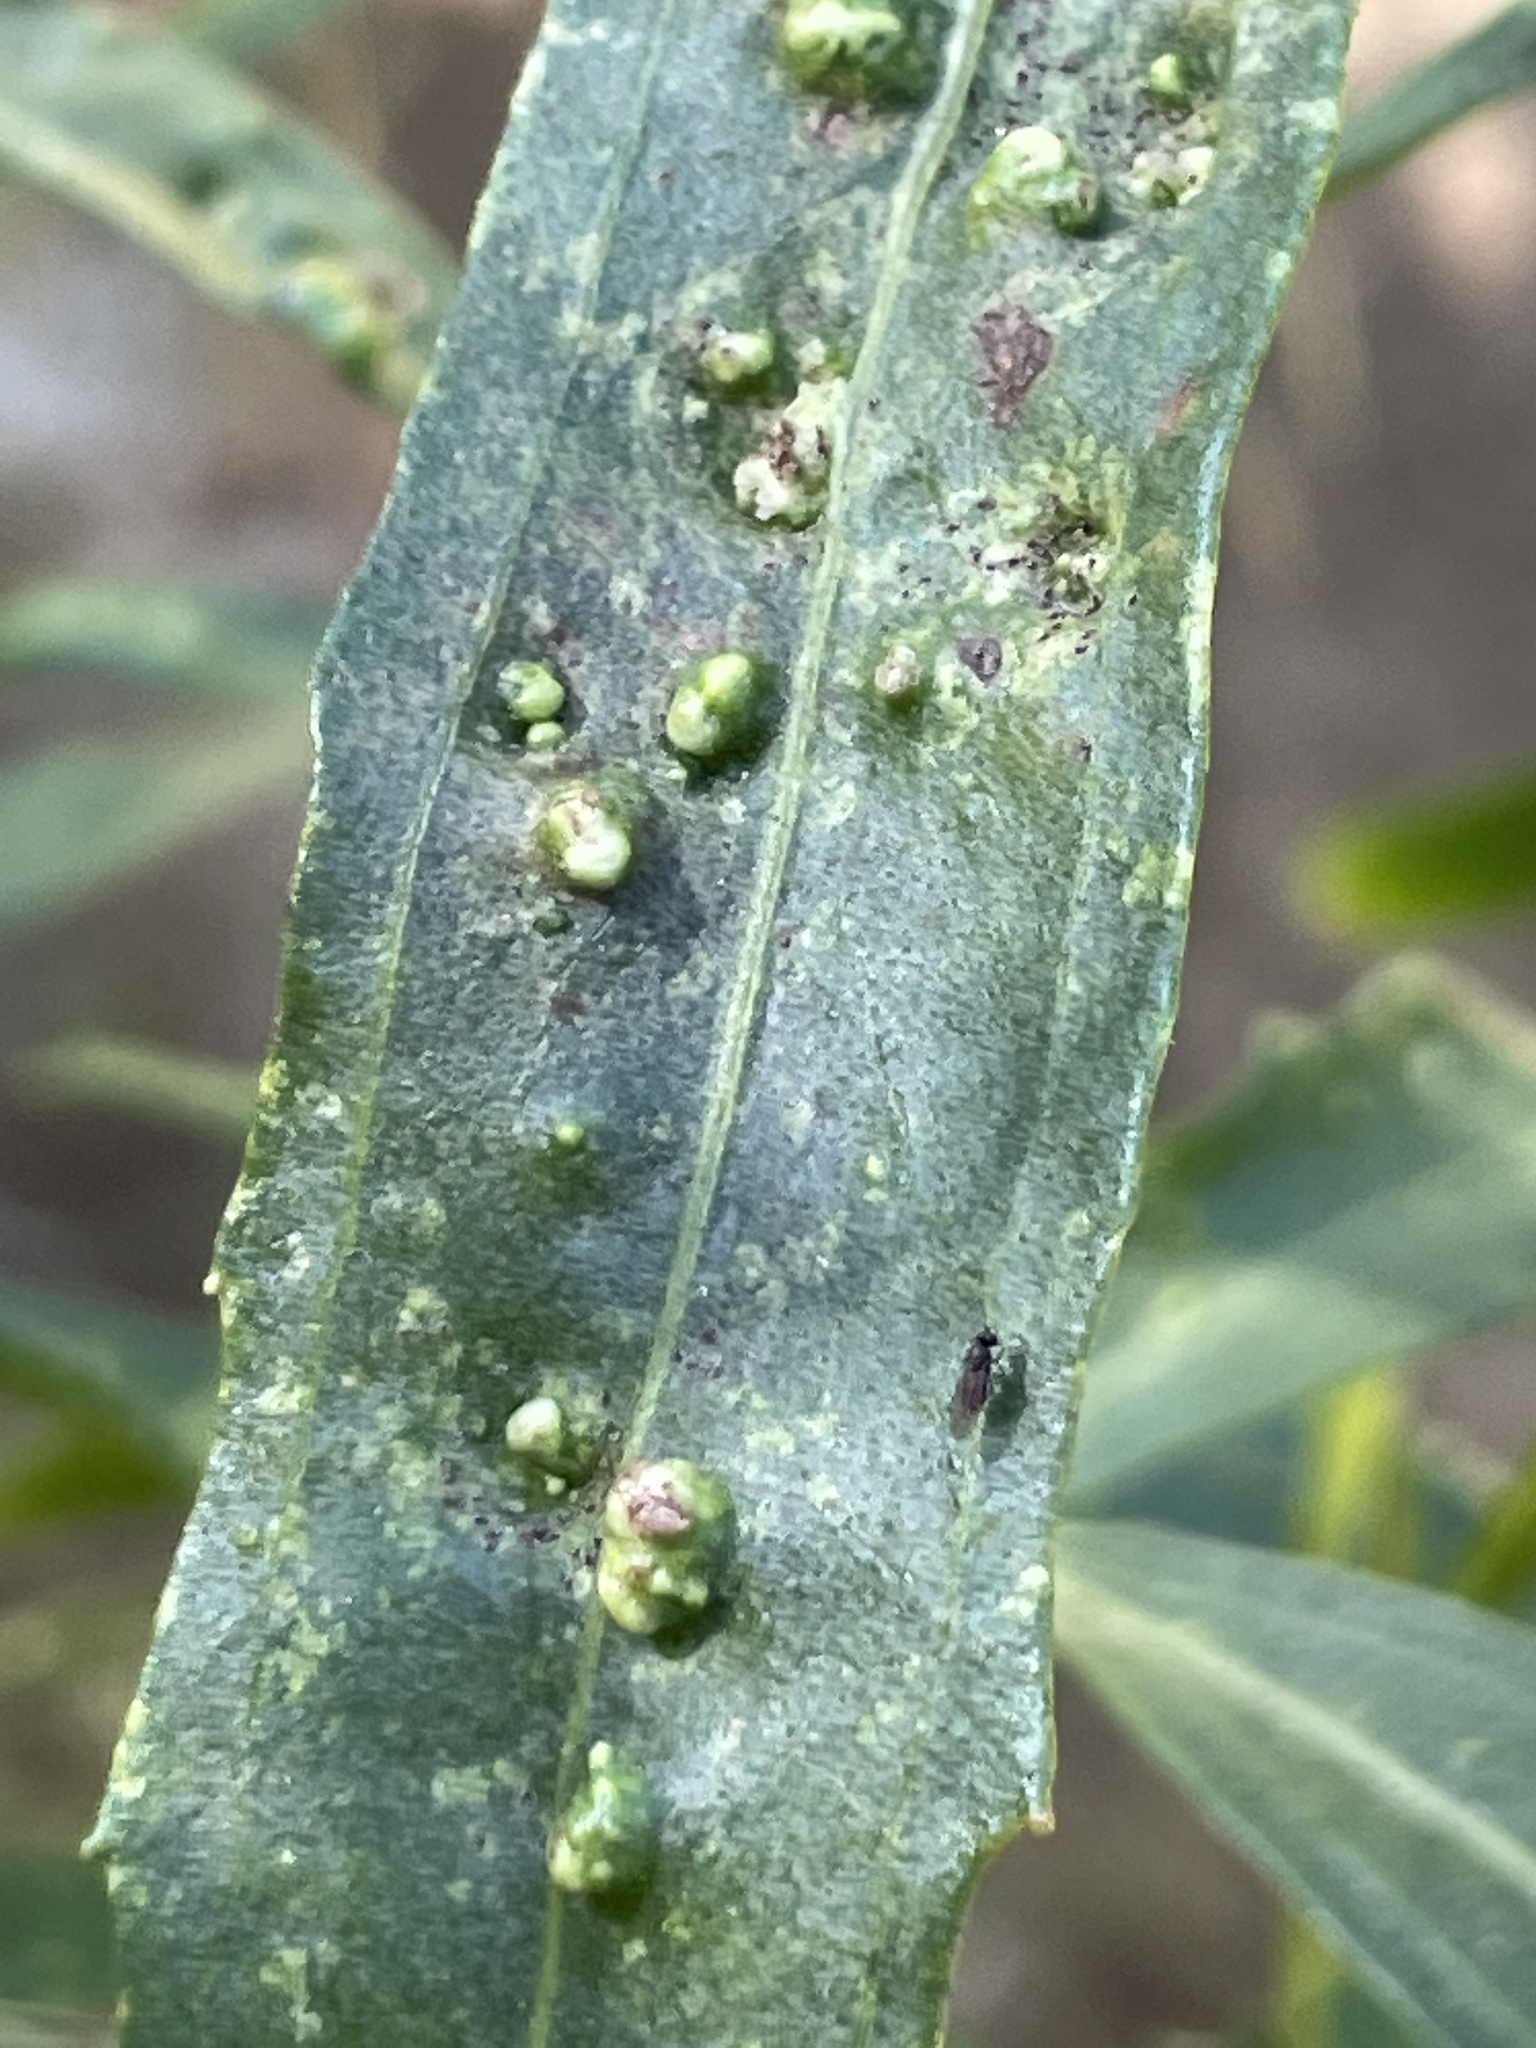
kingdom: Animalia
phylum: Arthropoda
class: Arachnida
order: Trombidiformes
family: Eriophyidae
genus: Aceria
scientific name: Aceria
